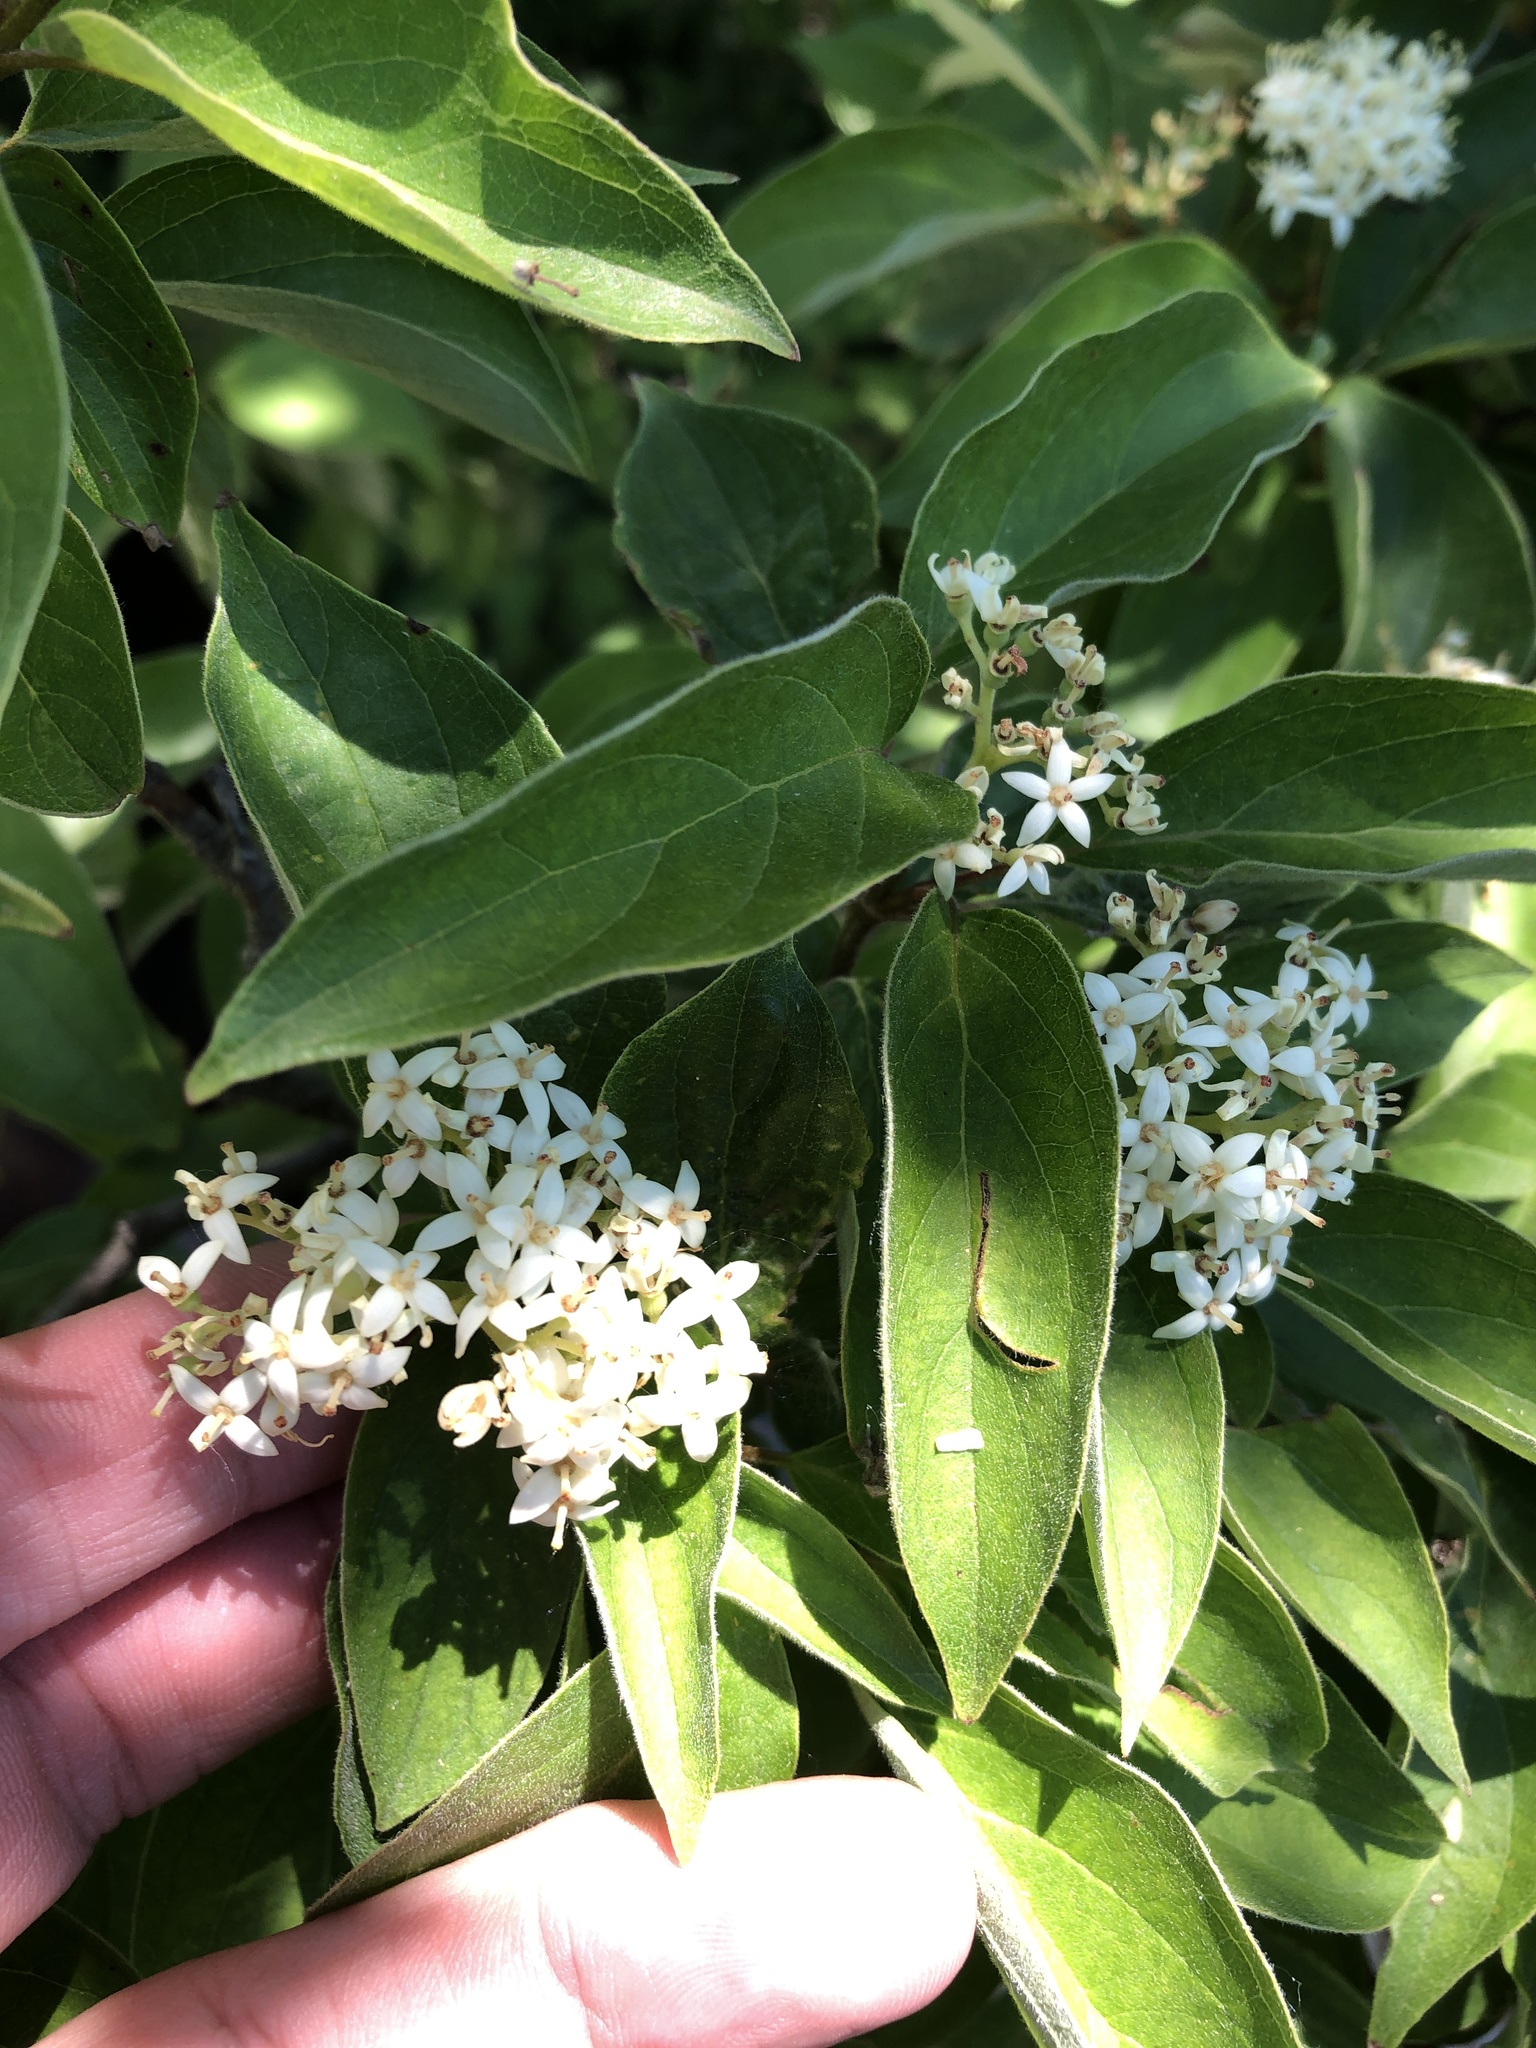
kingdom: Plantae
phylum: Tracheophyta
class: Magnoliopsida
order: Cornales
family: Cornaceae
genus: Cornus
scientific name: Cornus drummondii
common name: Rough-leaf dogwood
